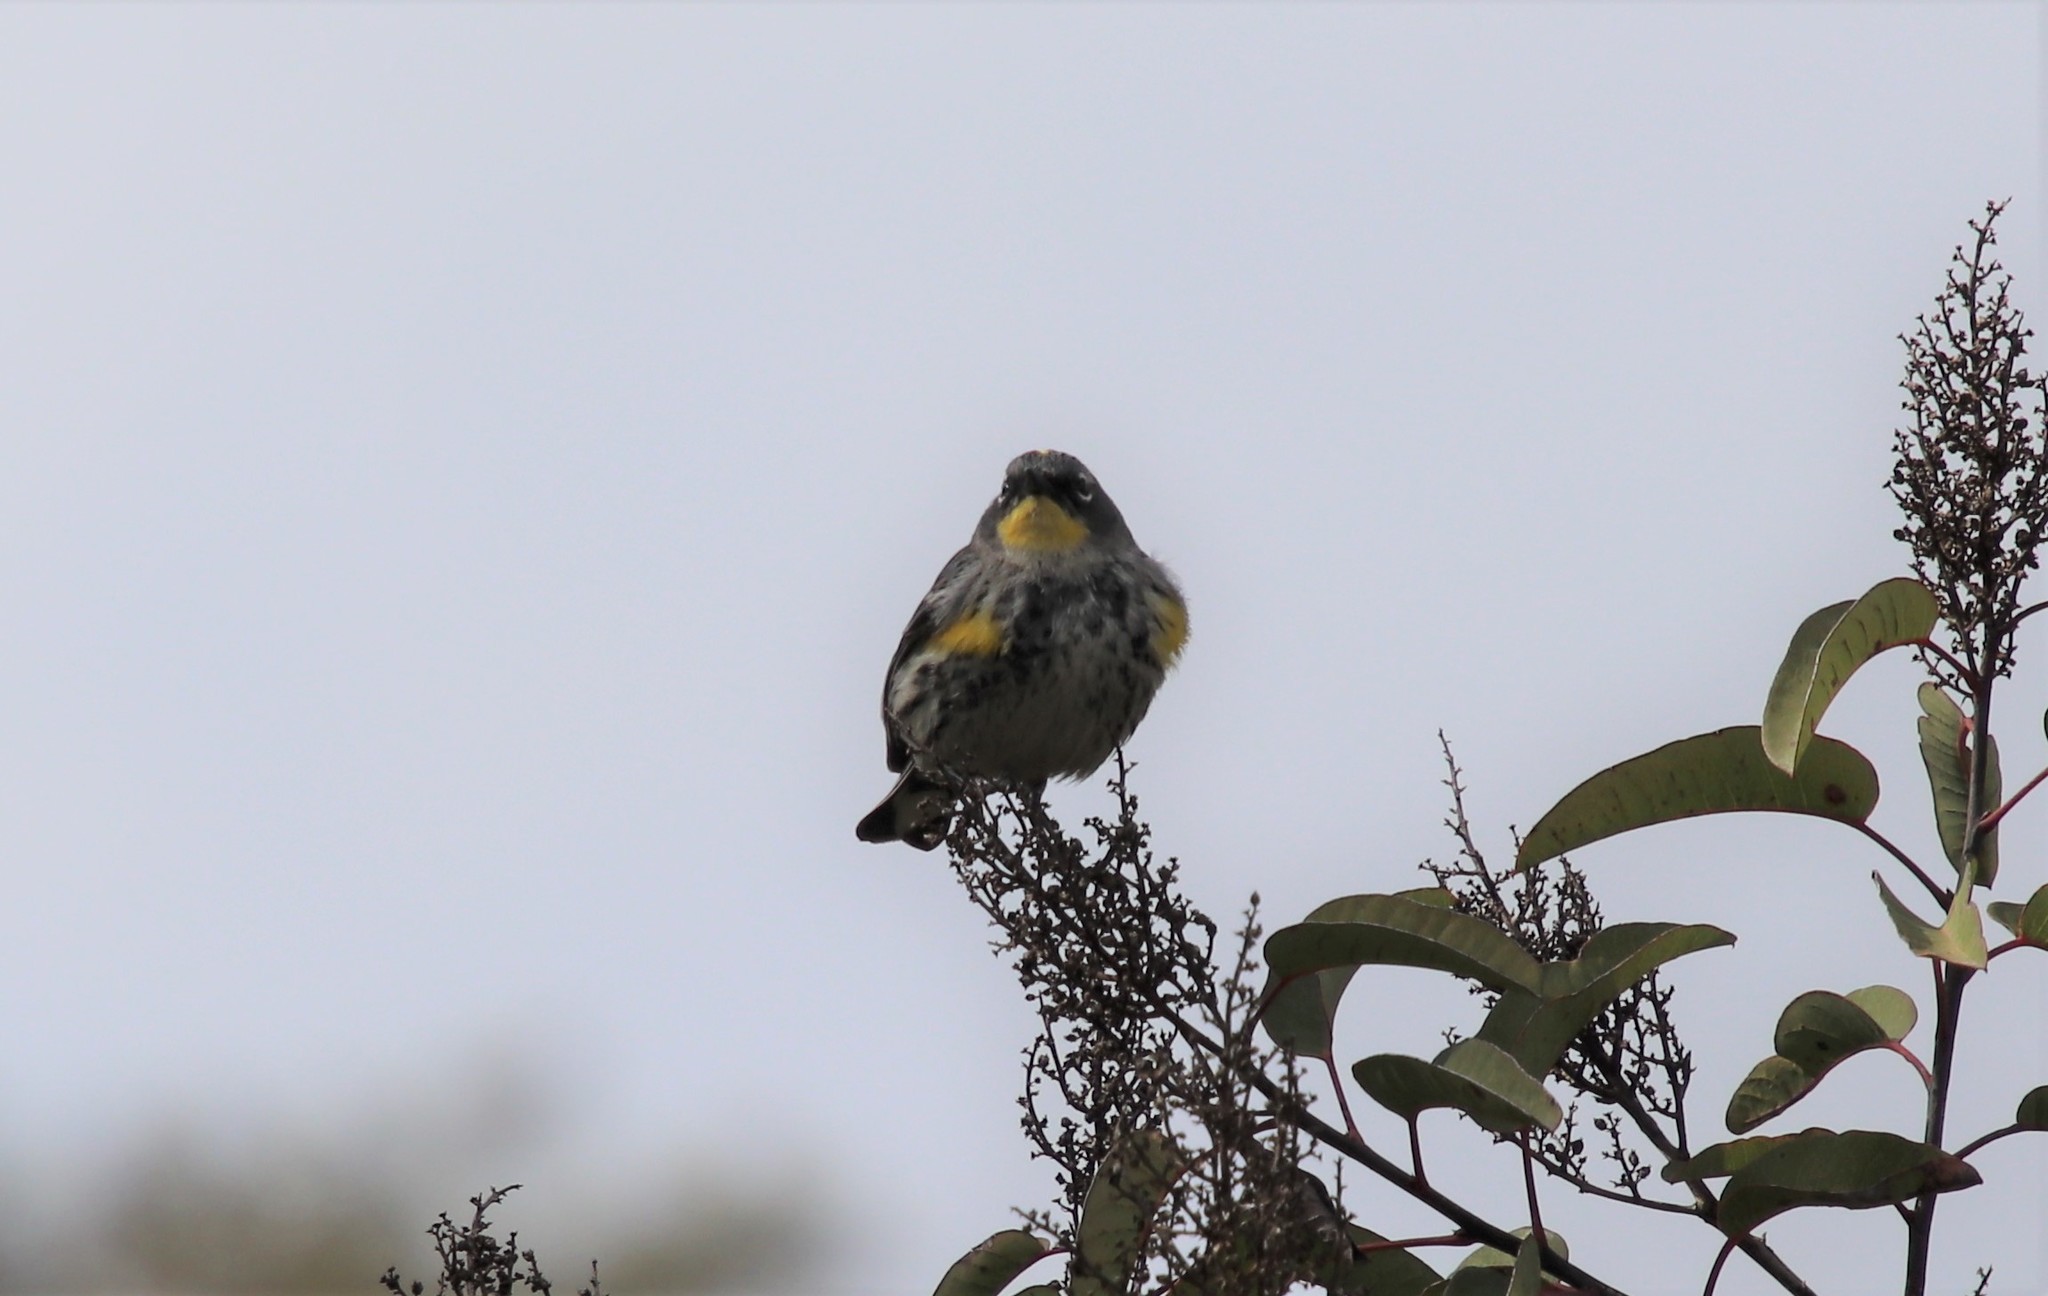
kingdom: Animalia
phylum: Chordata
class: Aves
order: Passeriformes
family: Parulidae
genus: Setophaga
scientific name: Setophaga auduboni
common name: Audubon's warbler
